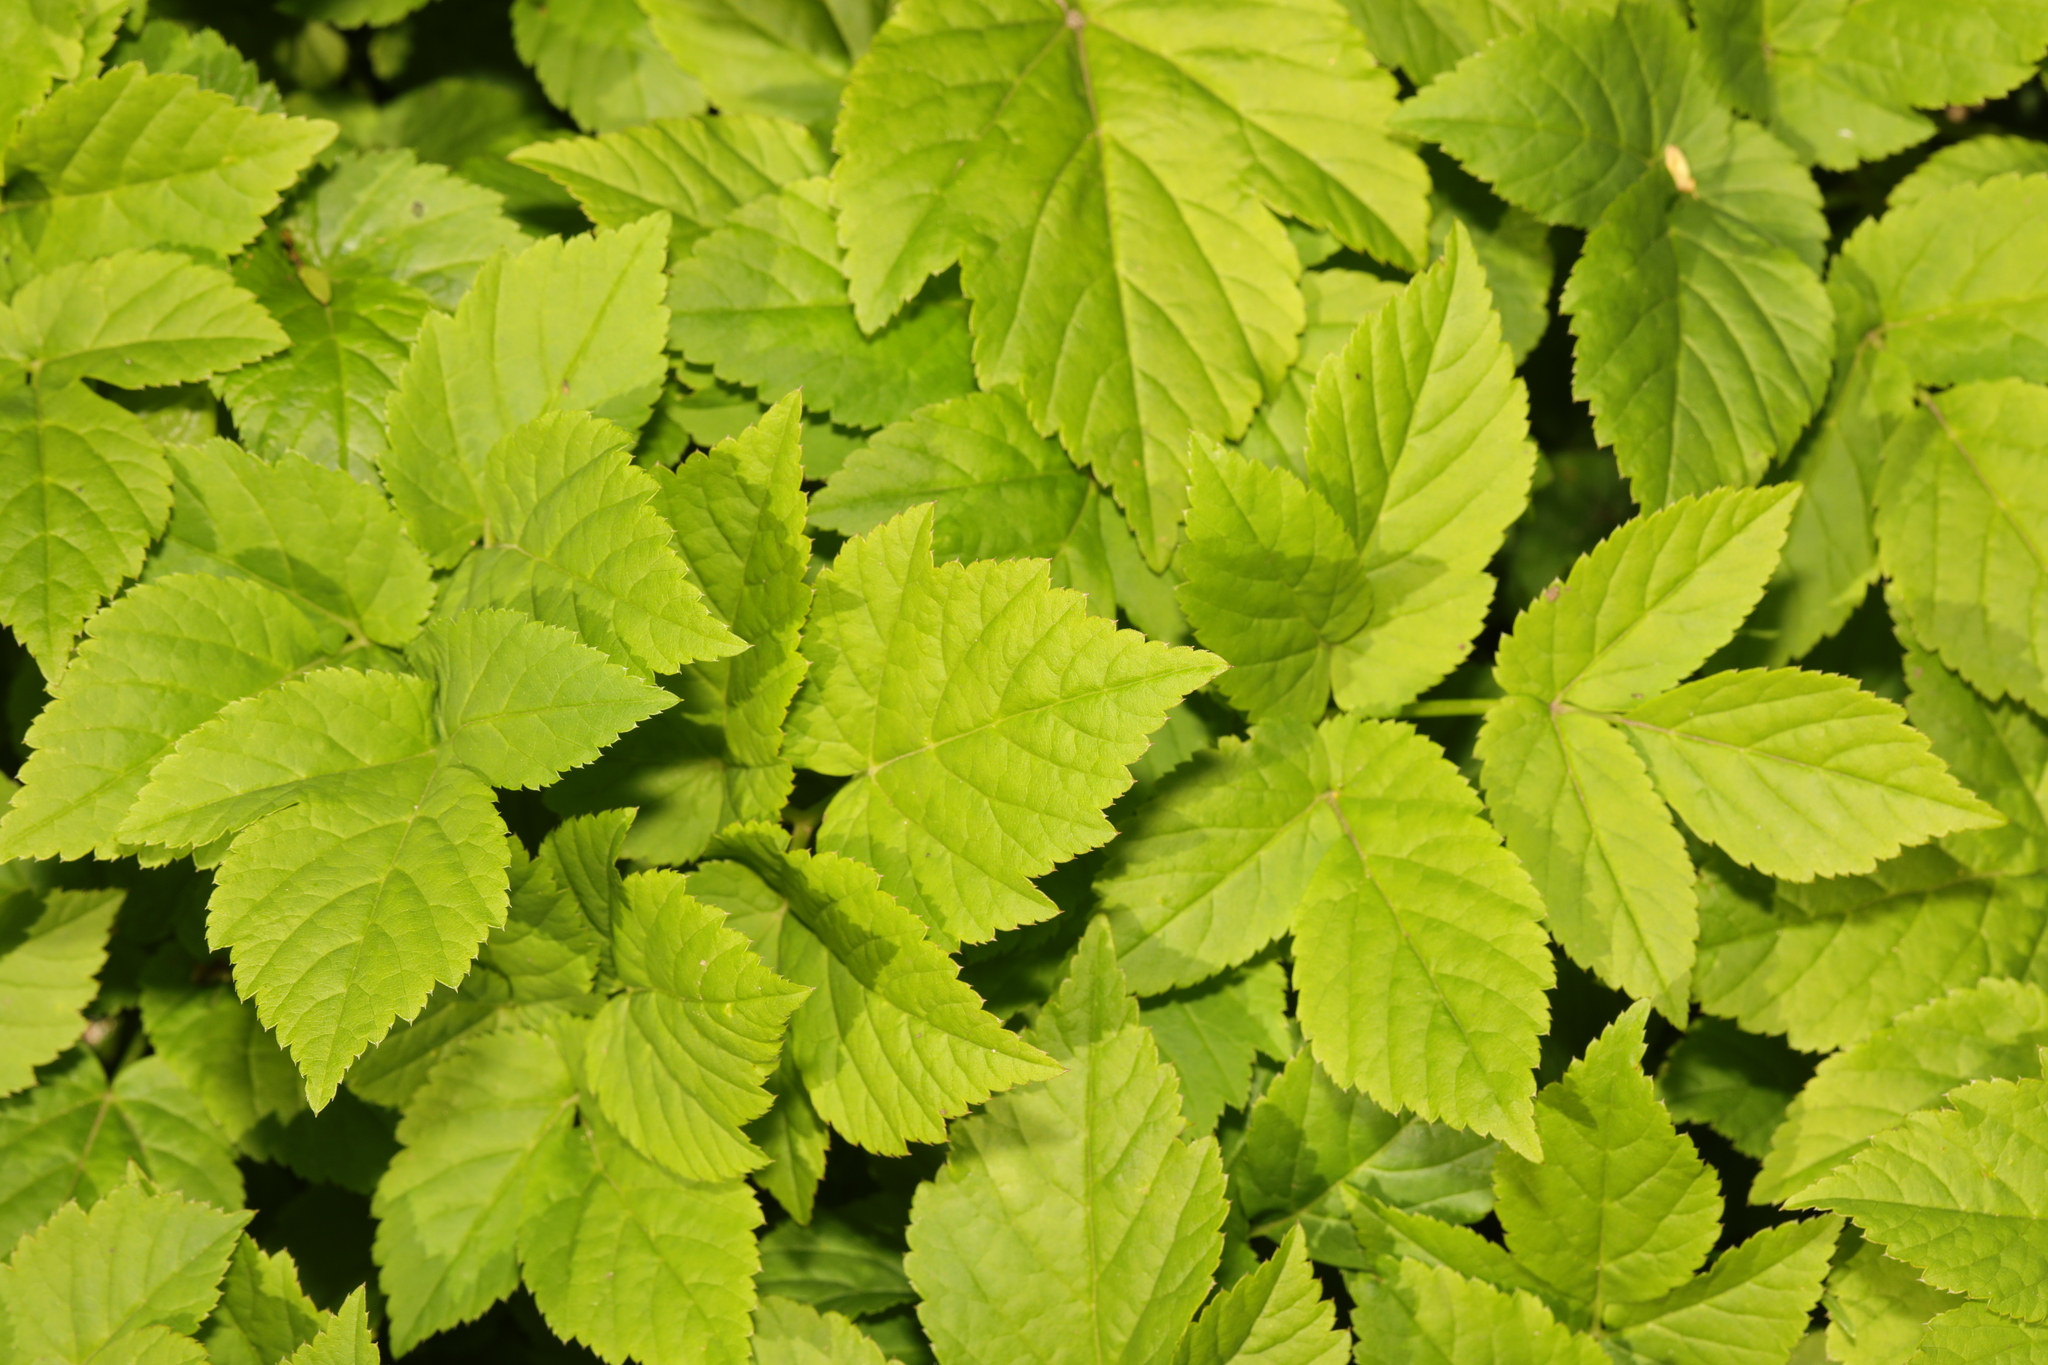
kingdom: Plantae
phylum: Tracheophyta
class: Magnoliopsida
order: Apiales
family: Apiaceae
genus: Aegopodium
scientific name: Aegopodium podagraria
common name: Ground-elder
